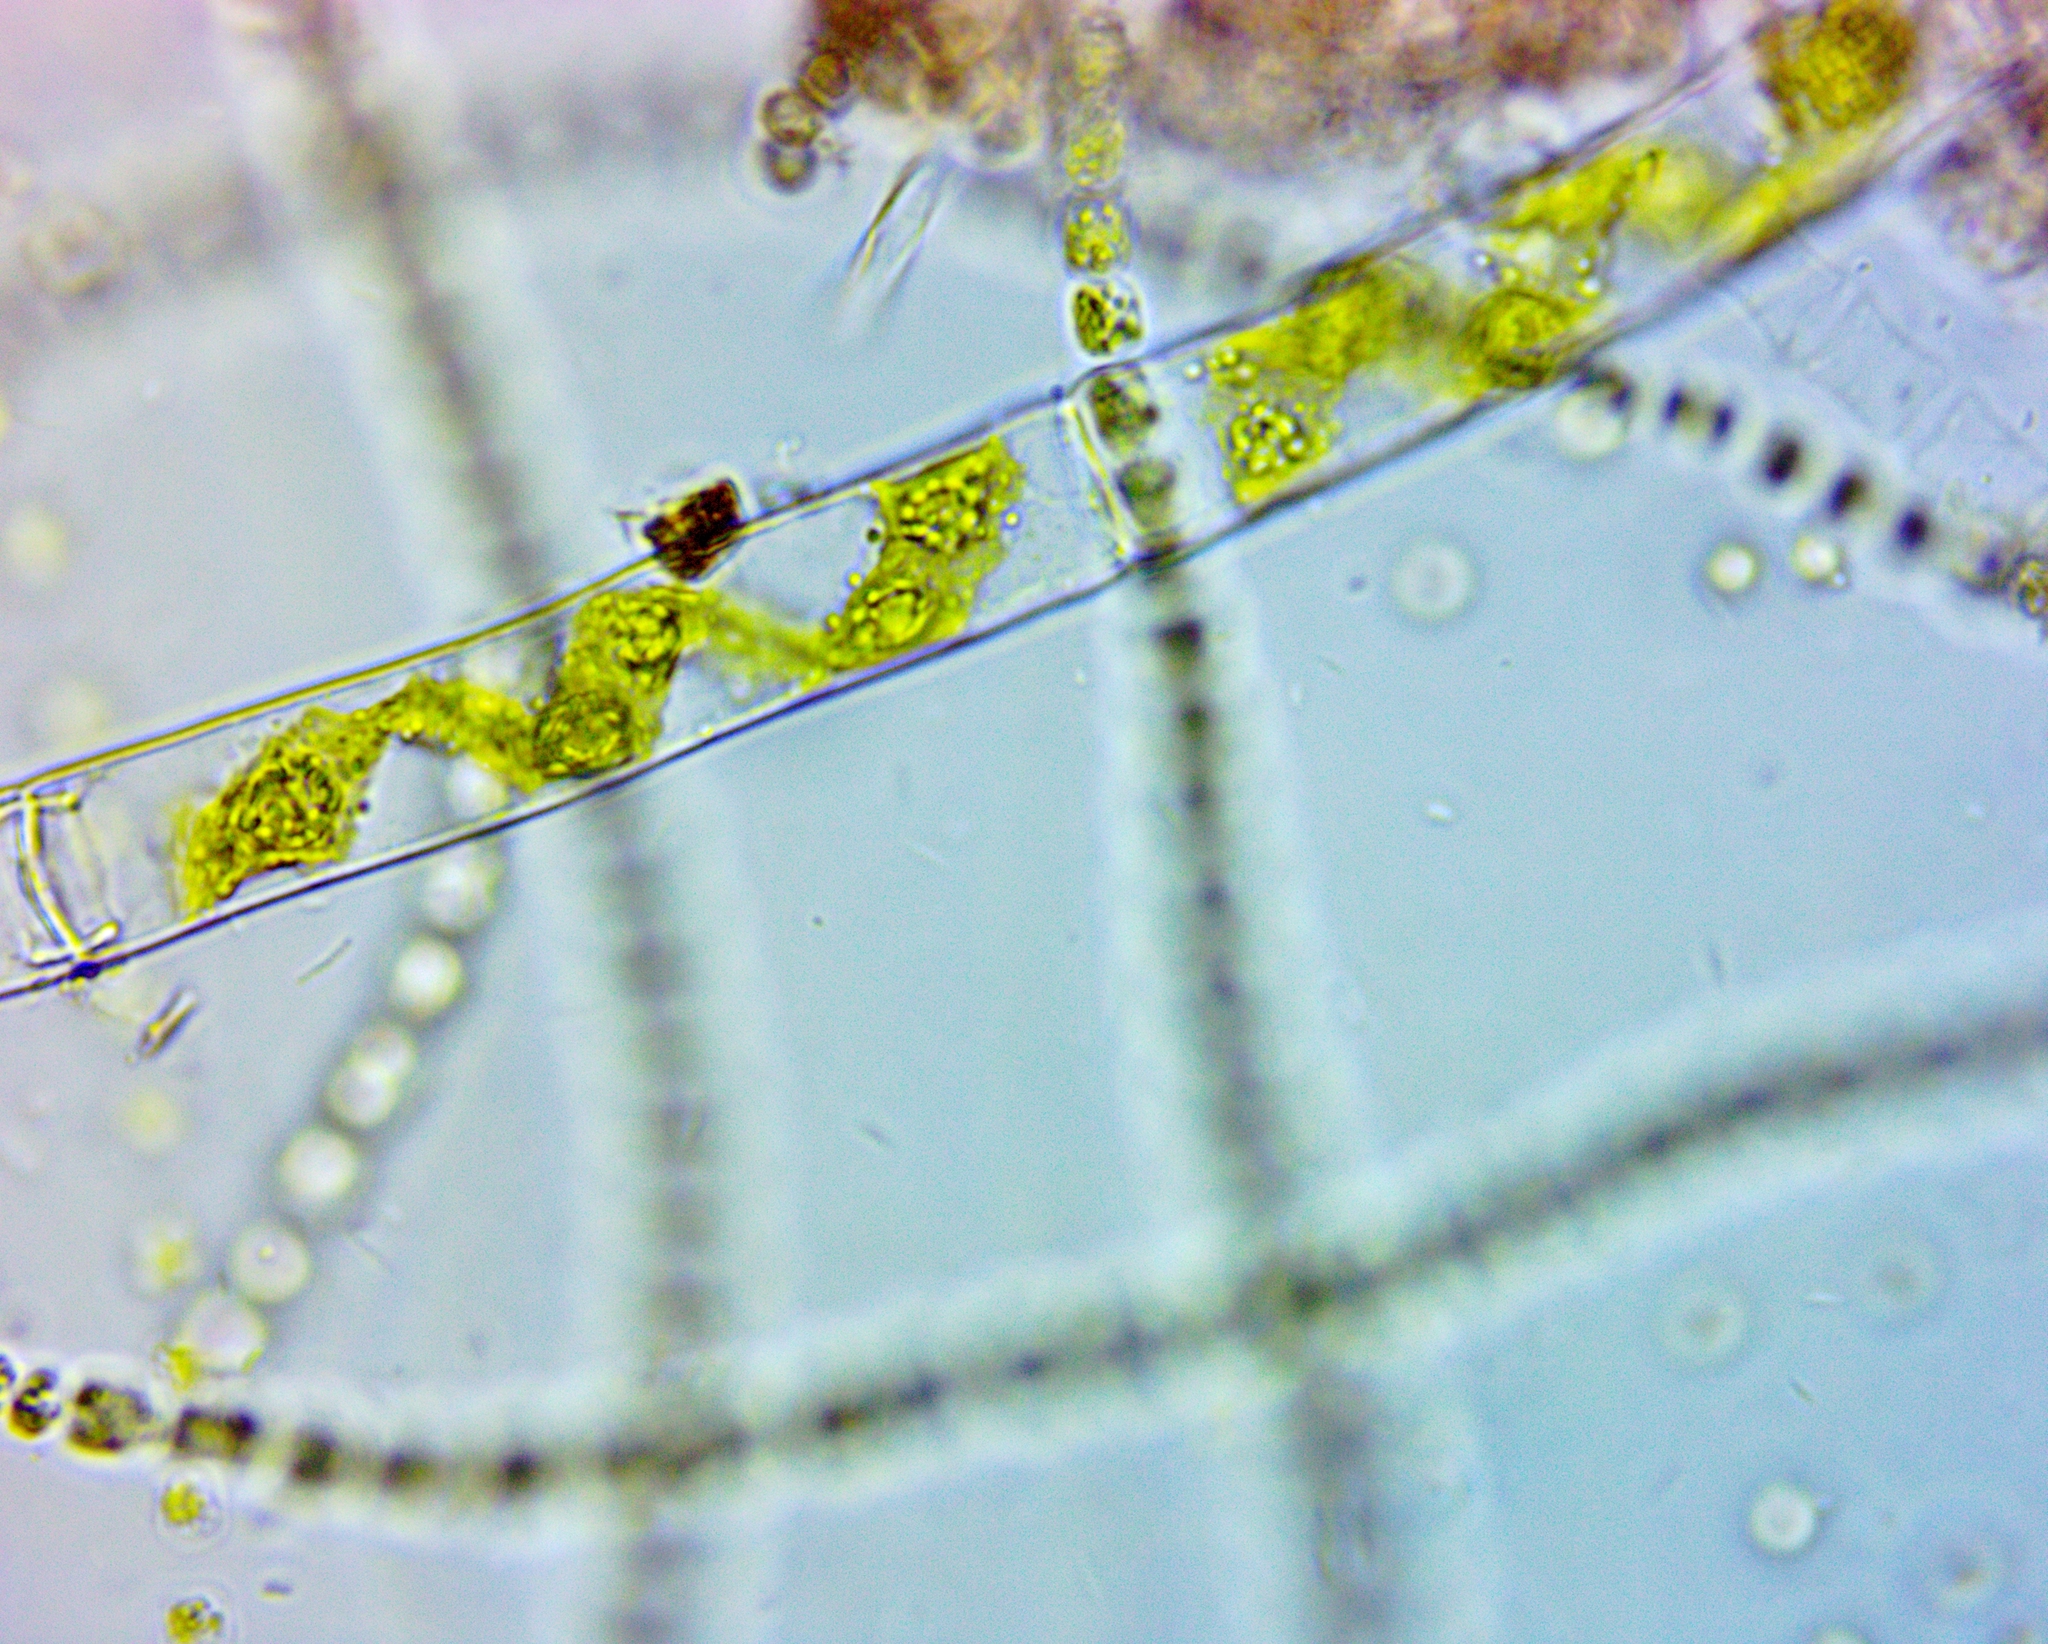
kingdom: Plantae
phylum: Charophyta
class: Zygnematophyceae
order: Zygnematales
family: Zygnemataceae
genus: Spirogyra
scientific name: Spirogyra
